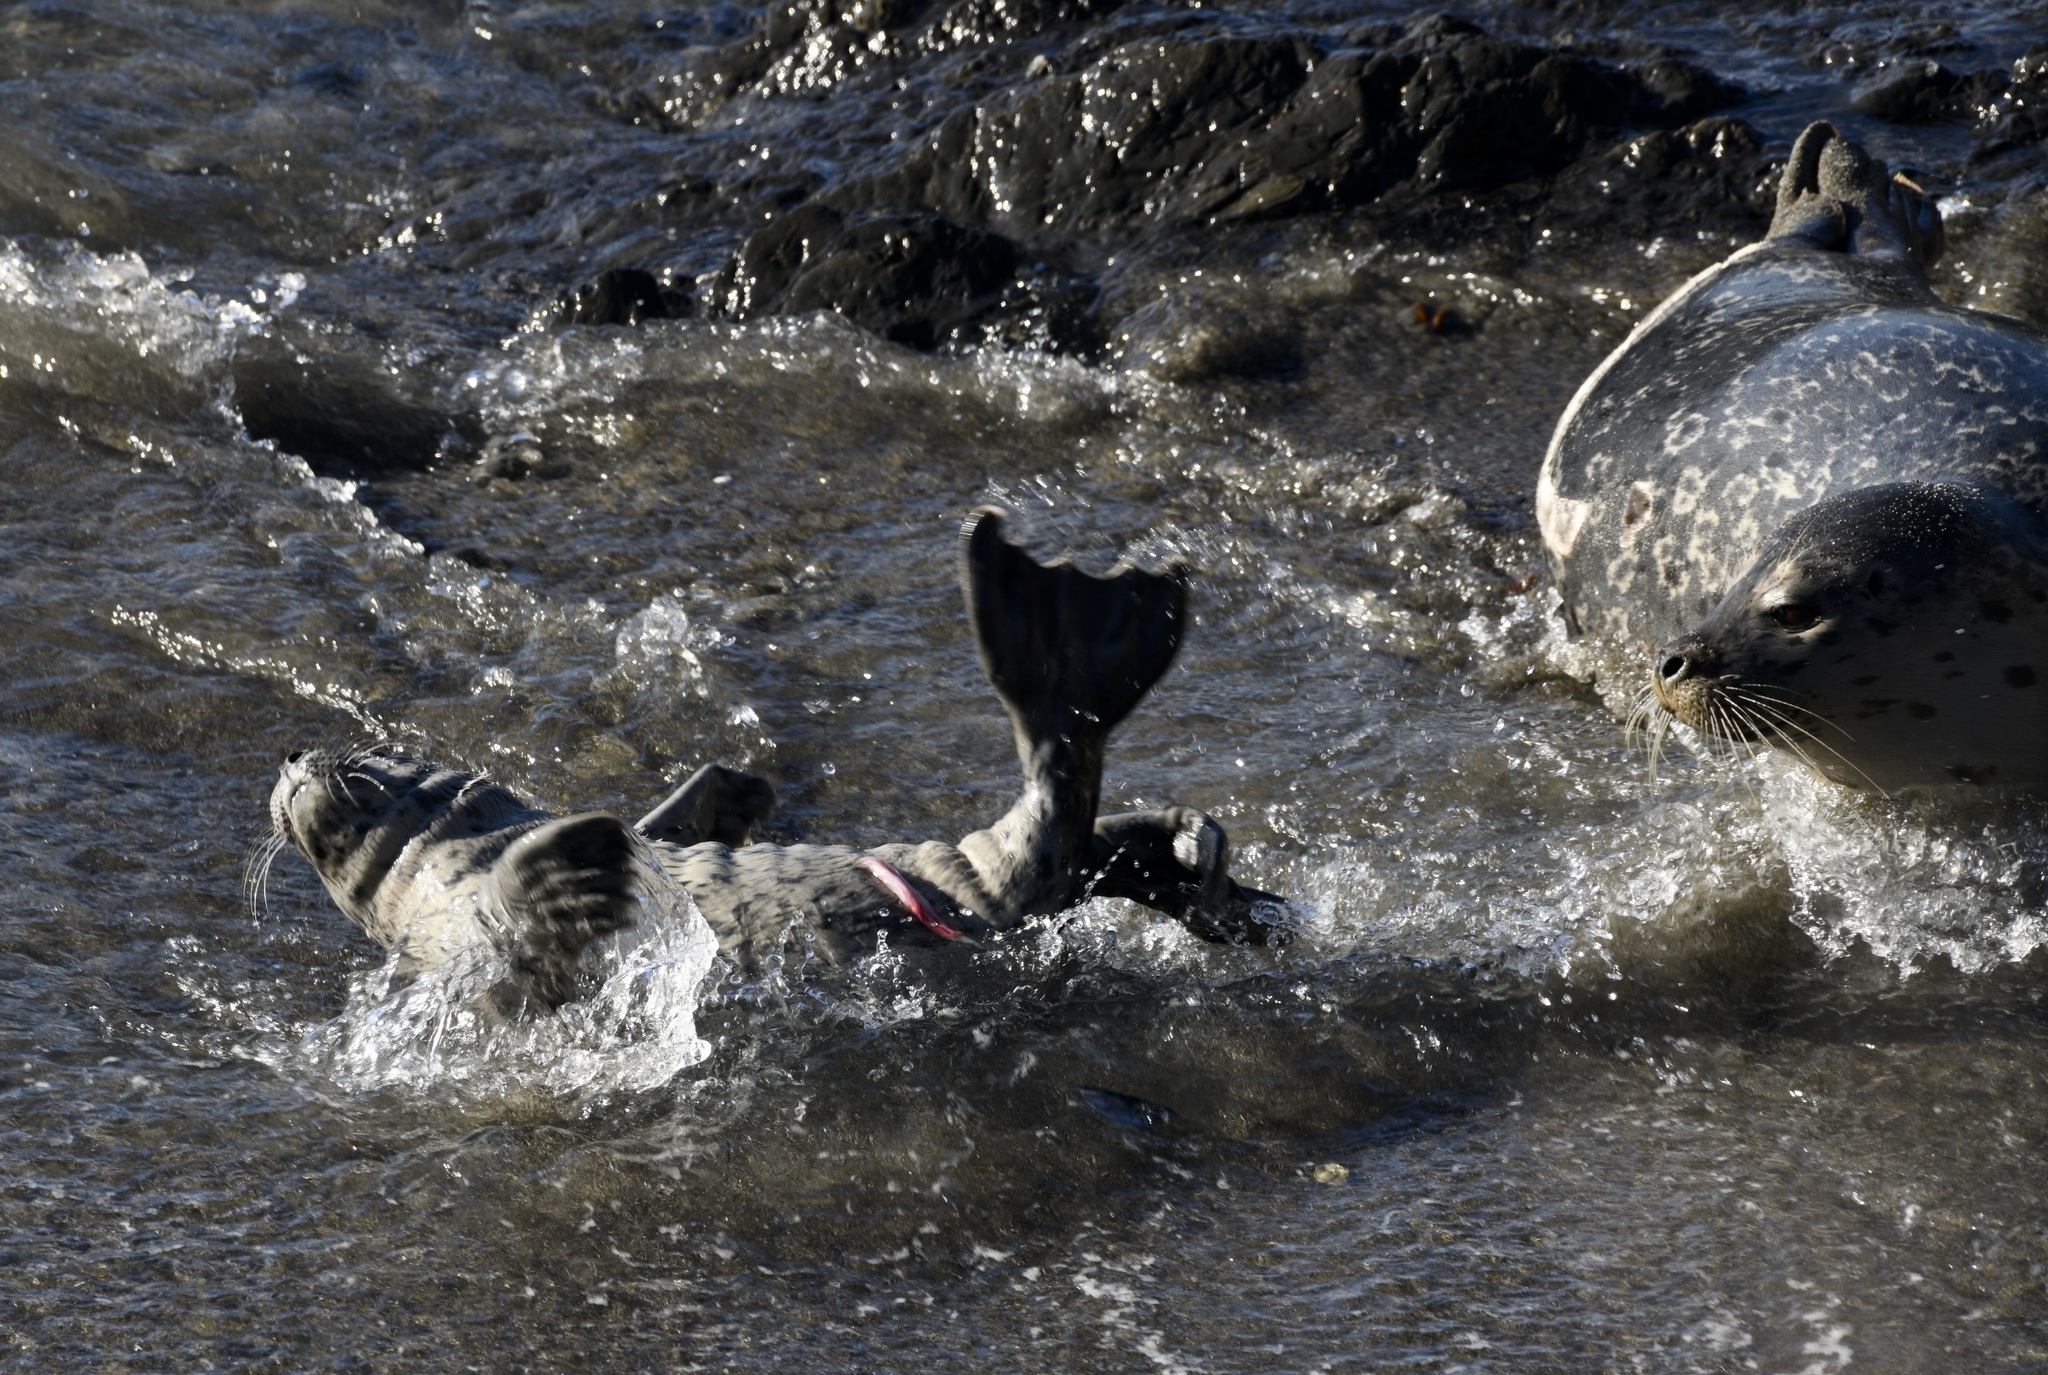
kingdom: Animalia
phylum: Chordata
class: Mammalia
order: Carnivora
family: Phocidae
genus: Phoca
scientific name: Phoca vitulina
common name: Harbor seal
